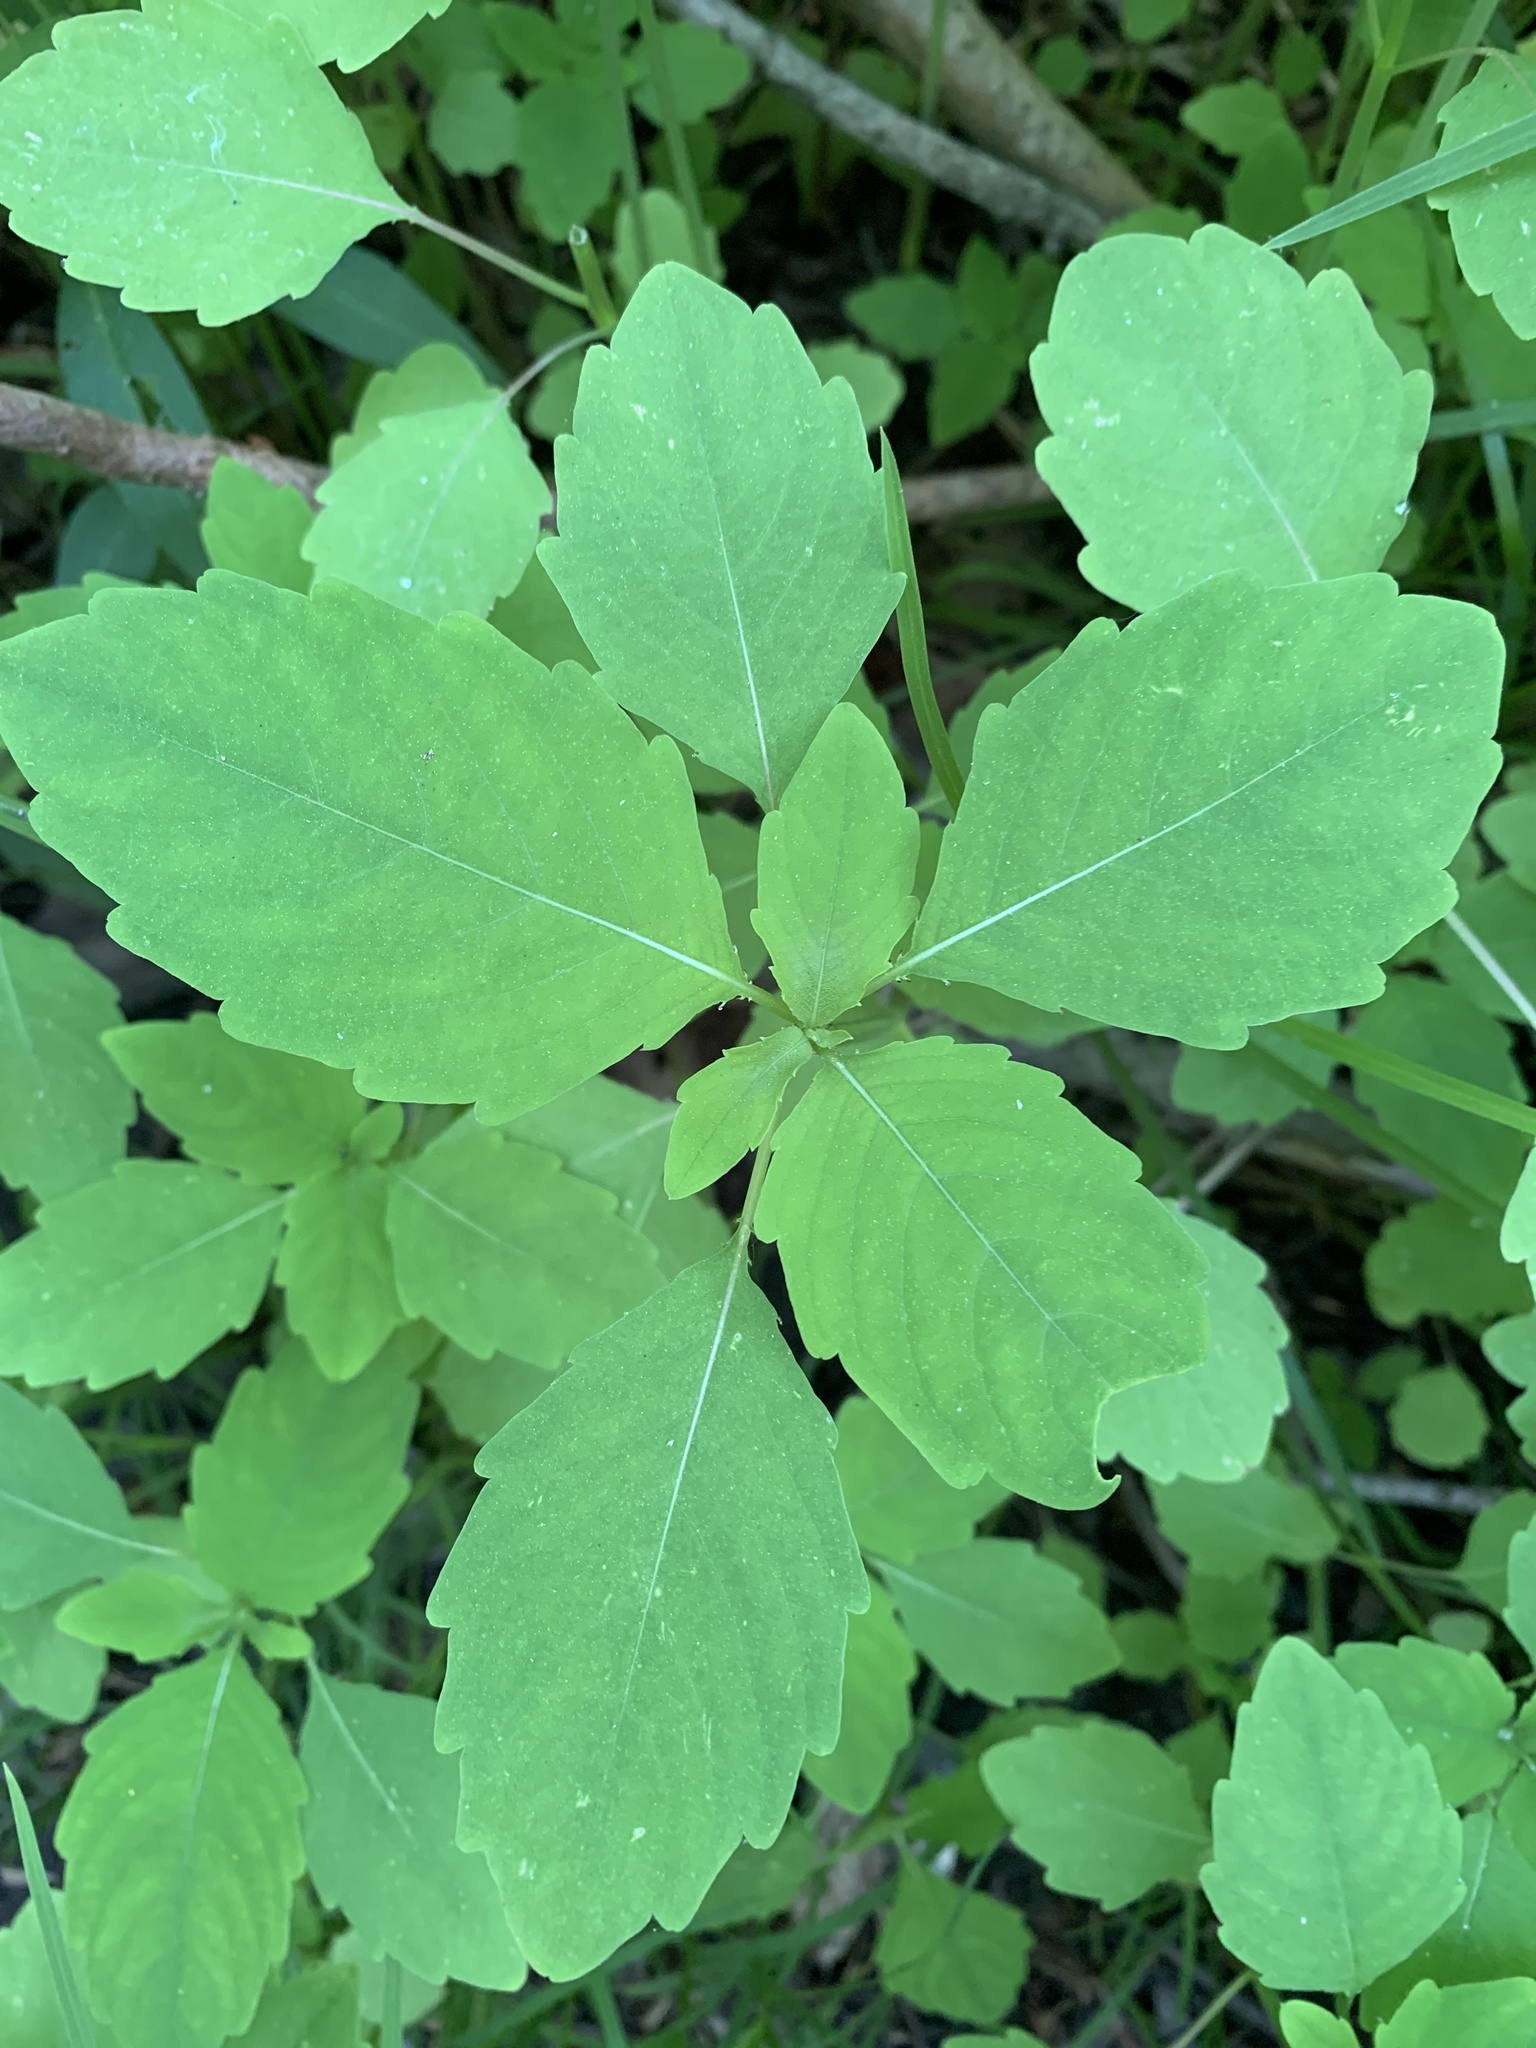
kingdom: Plantae
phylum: Tracheophyta
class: Magnoliopsida
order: Ericales
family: Balsaminaceae
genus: Impatiens
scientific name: Impatiens capensis
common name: Orange balsam
